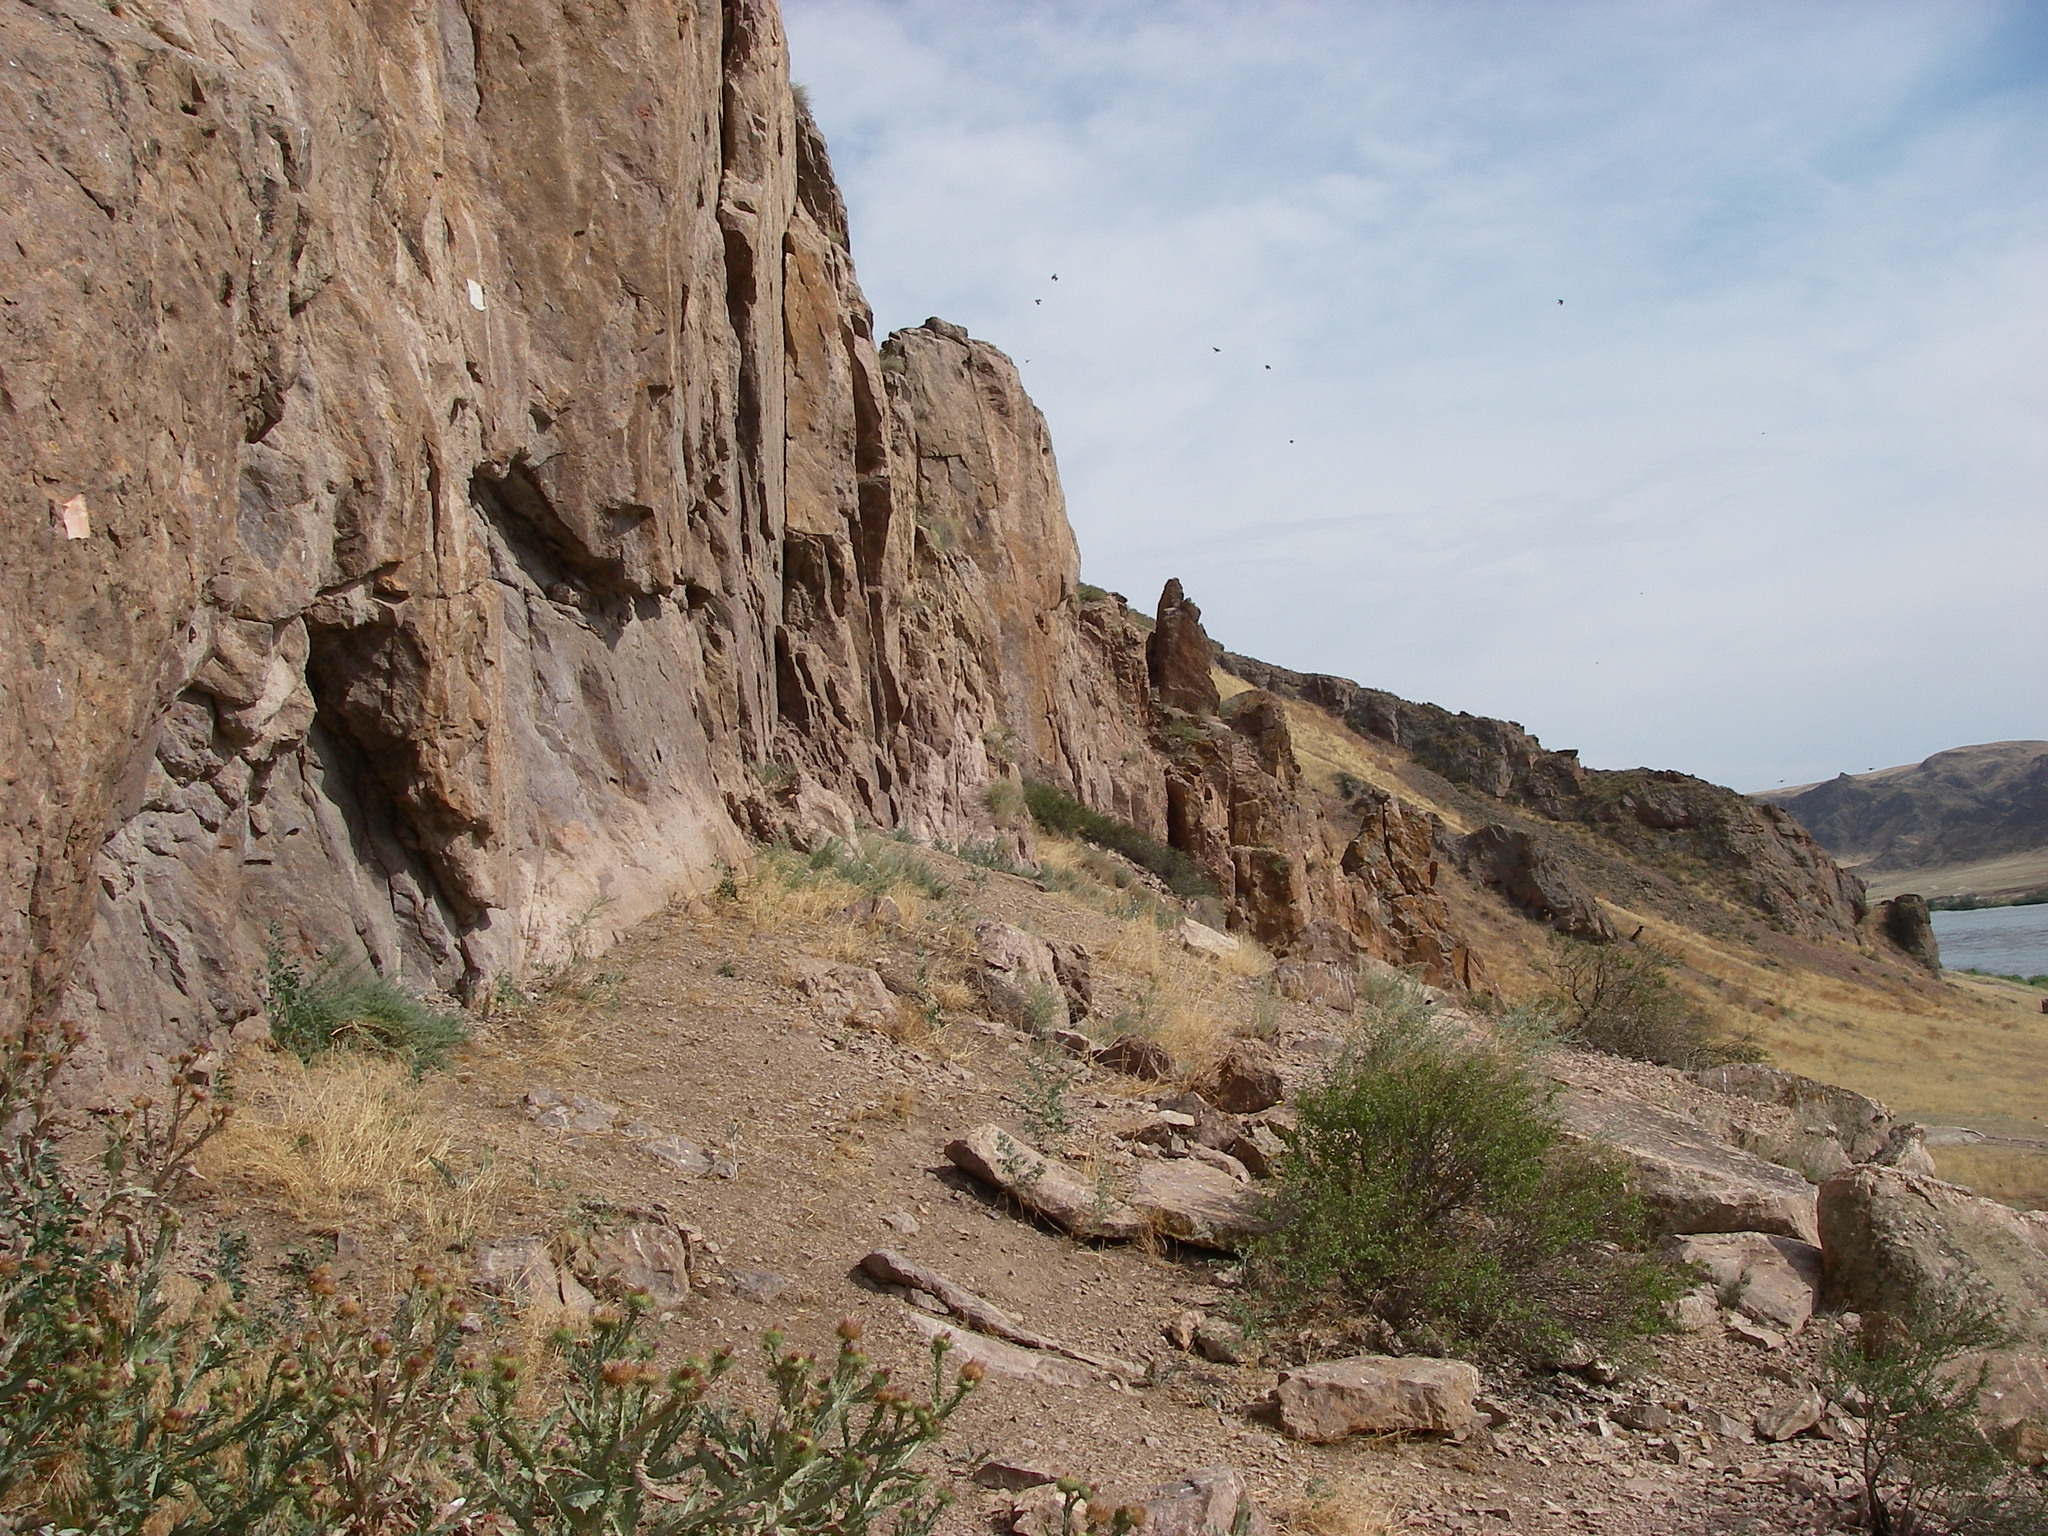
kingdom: Plantae
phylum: Tracheophyta
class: Magnoliopsida
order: Asterales
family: Asteraceae
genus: Onopordum
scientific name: Onopordum acanthium
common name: Scotch thistle
